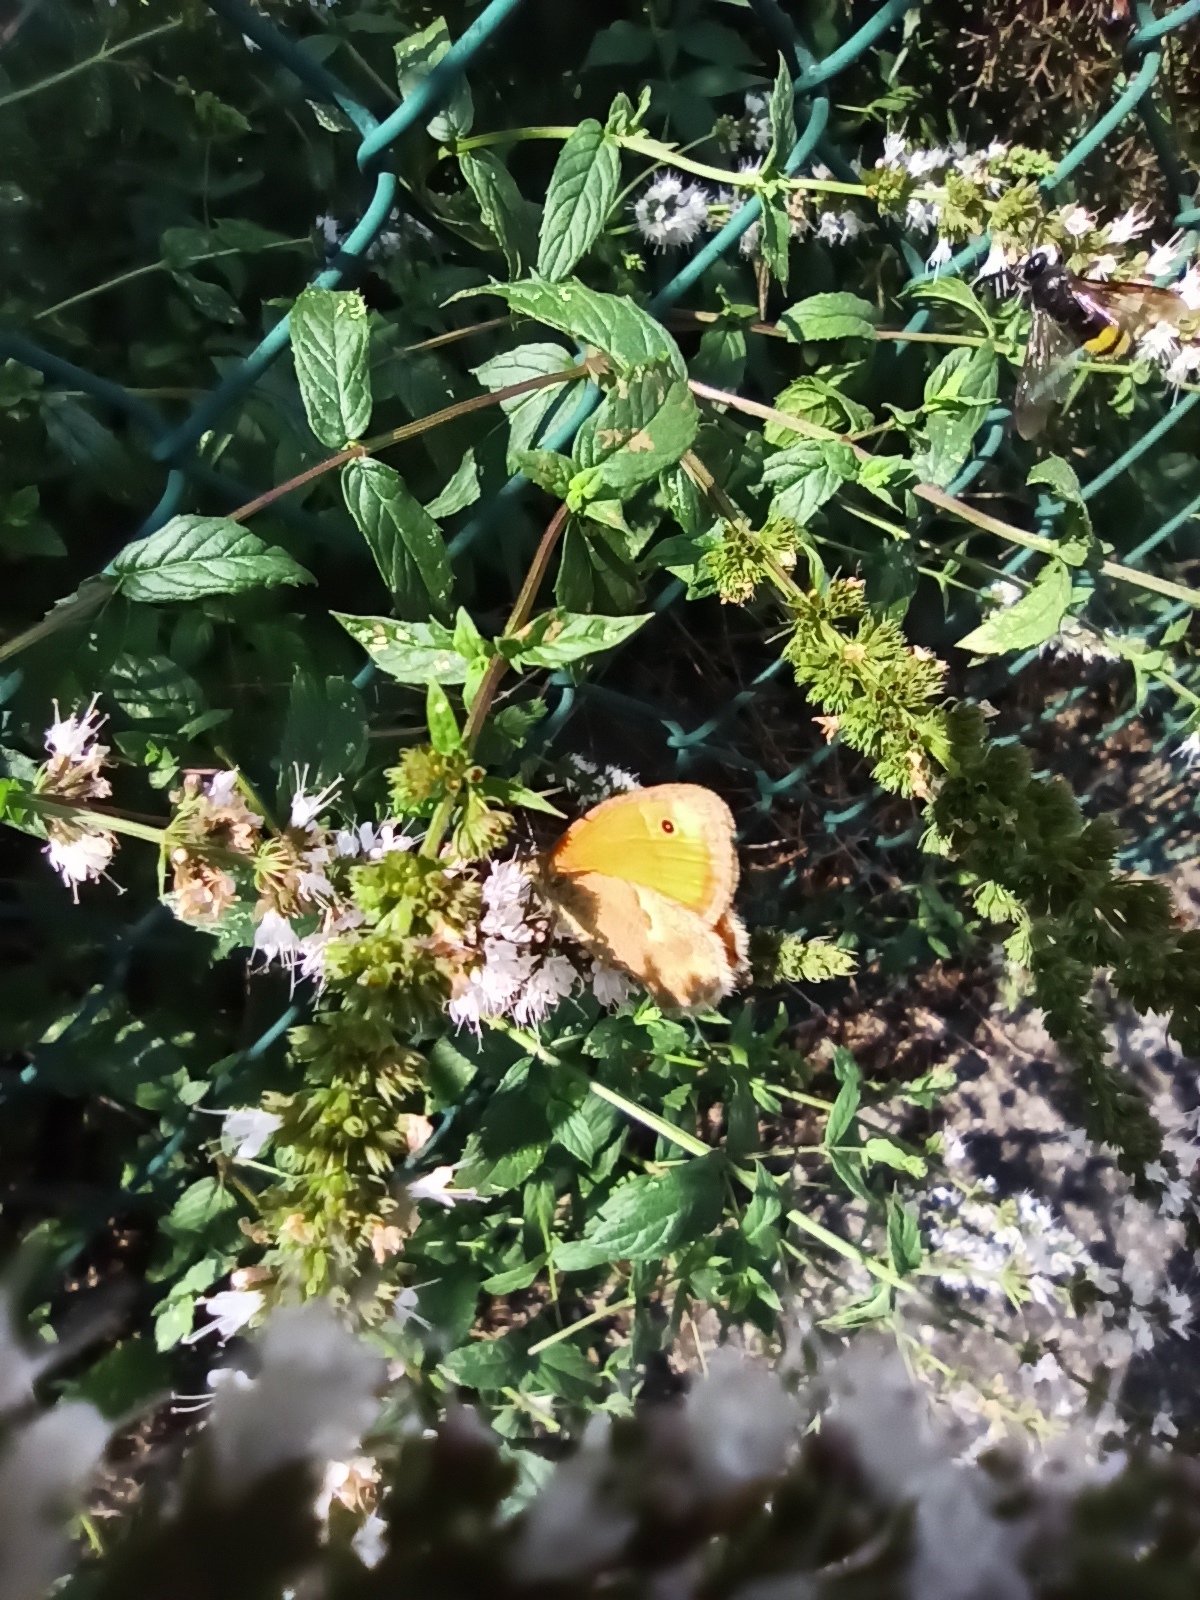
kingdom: Animalia
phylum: Arthropoda
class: Insecta
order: Lepidoptera
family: Nymphalidae
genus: Coenonympha
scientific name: Coenonympha pamphilus
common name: Small heath
